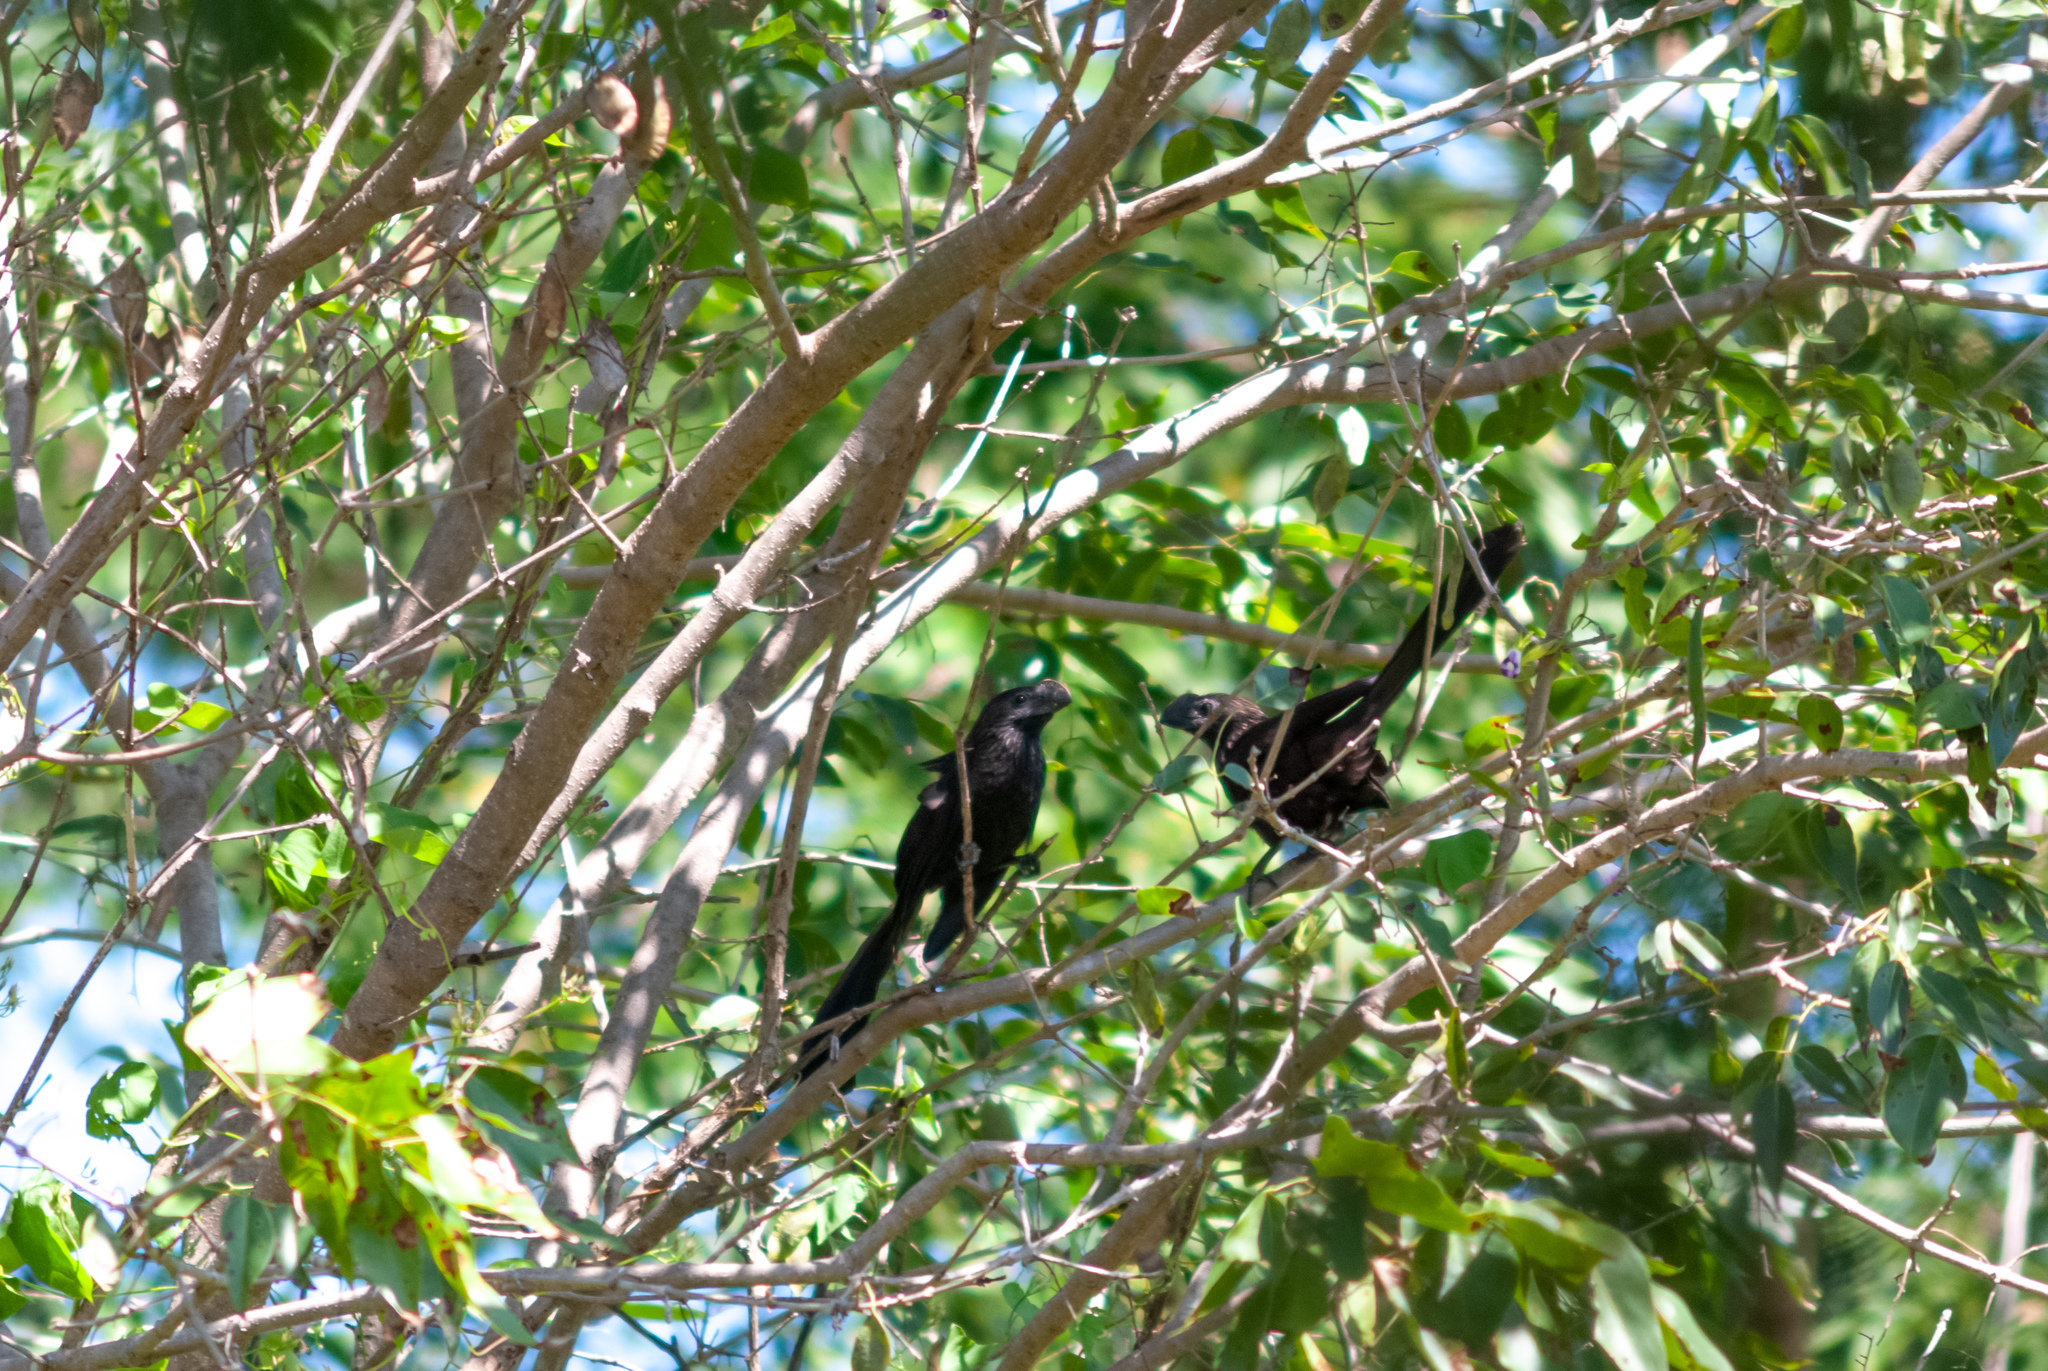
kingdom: Animalia
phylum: Chordata
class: Aves
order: Cuculiformes
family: Cuculidae
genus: Crotophaga
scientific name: Crotophaga ani
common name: Smooth-billed ani
